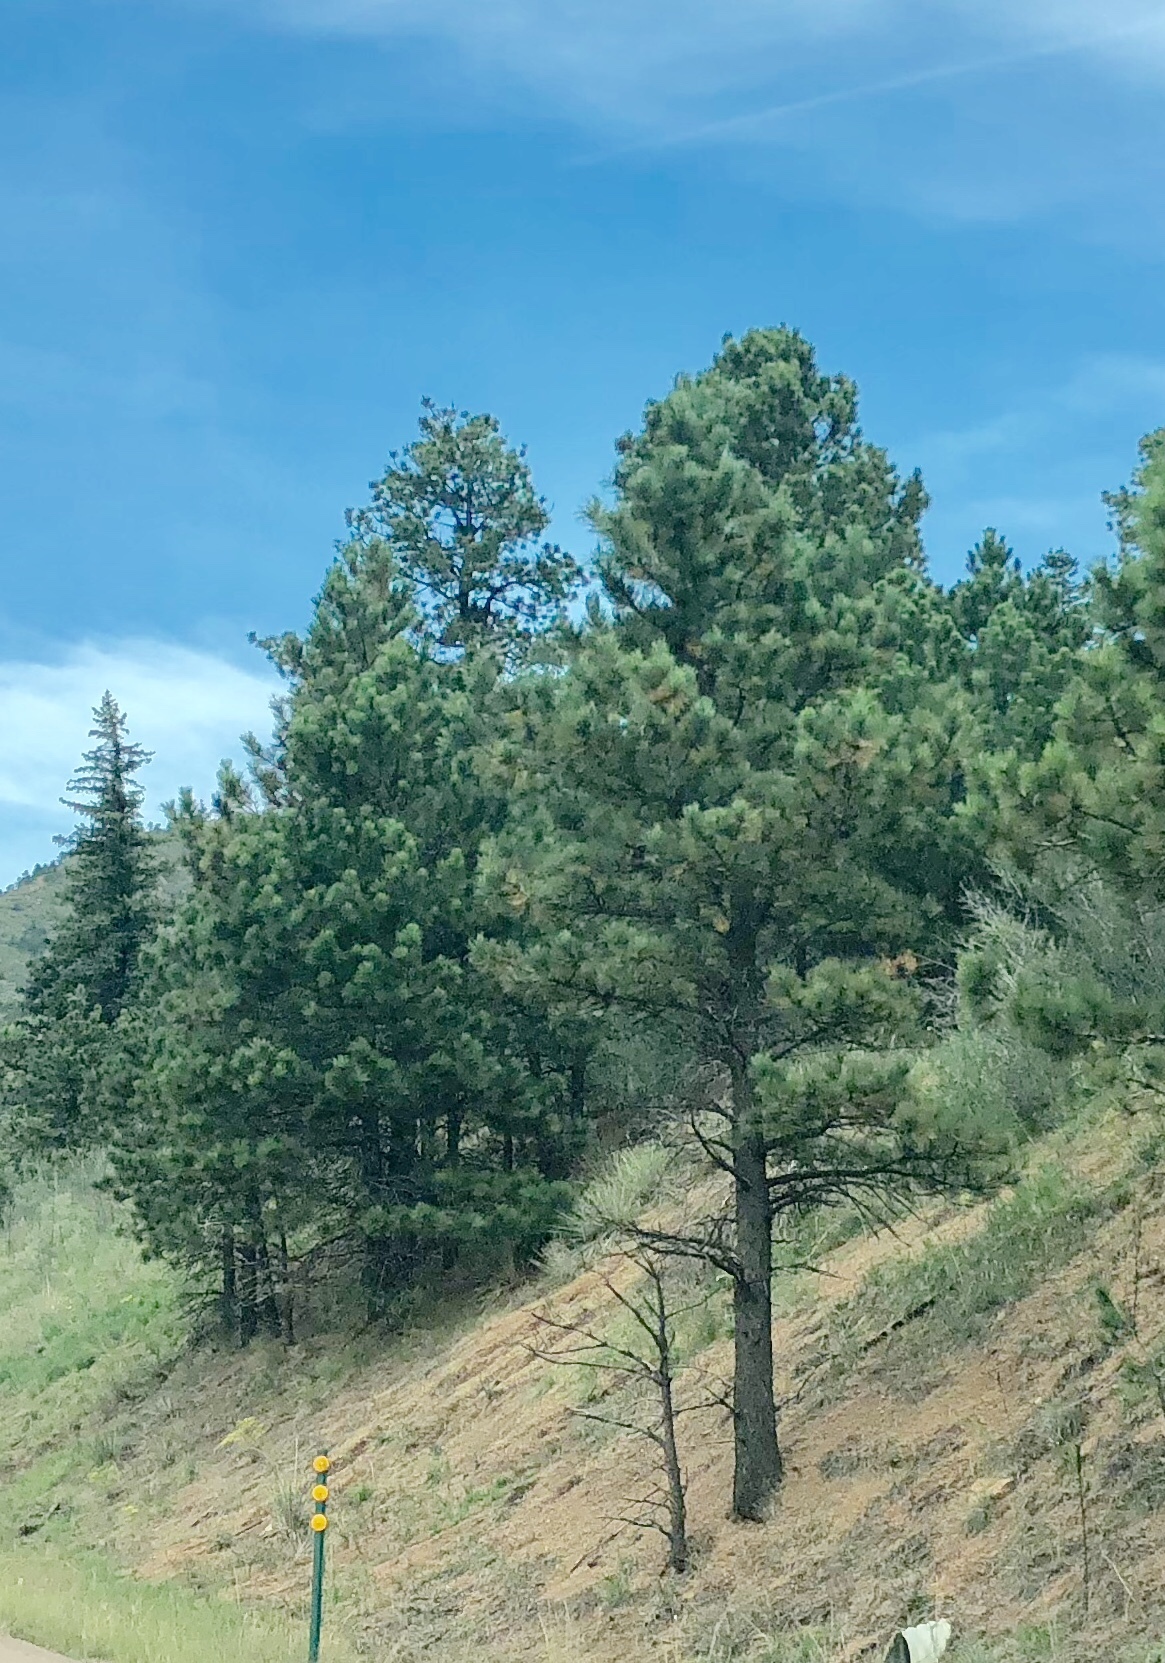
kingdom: Plantae
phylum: Tracheophyta
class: Pinopsida
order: Pinales
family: Pinaceae
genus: Pinus
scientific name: Pinus ponderosa
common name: Western yellow-pine
